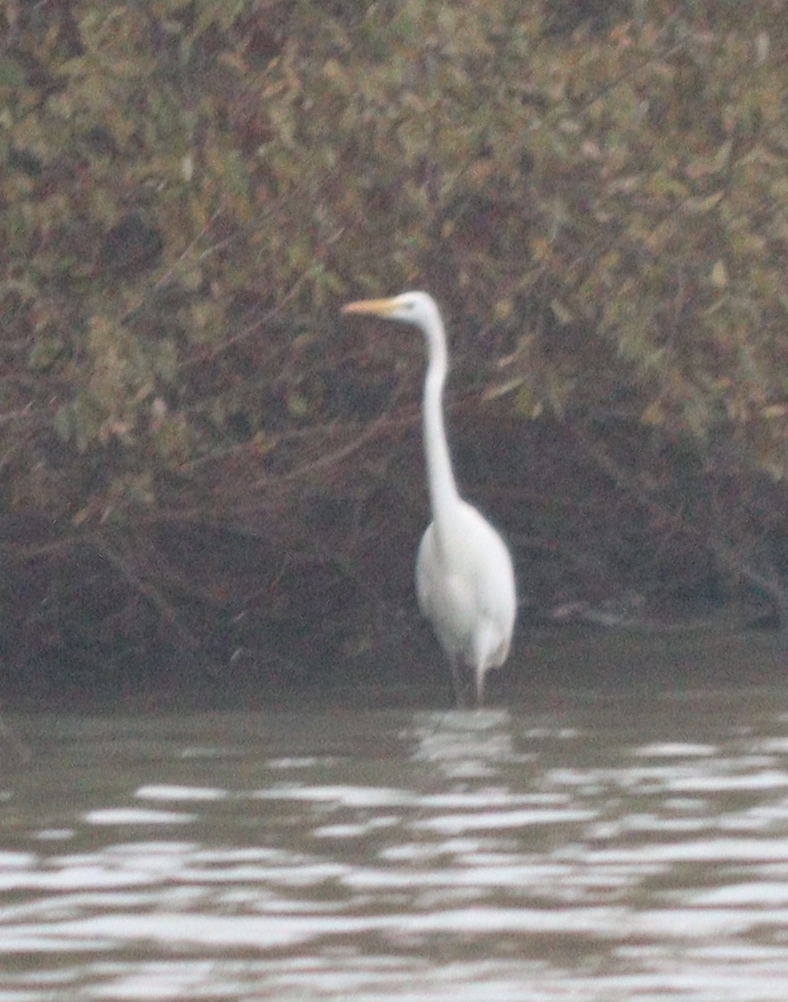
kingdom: Animalia
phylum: Chordata
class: Aves
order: Pelecaniformes
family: Ardeidae
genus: Ardea
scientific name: Ardea alba
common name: Great egret
